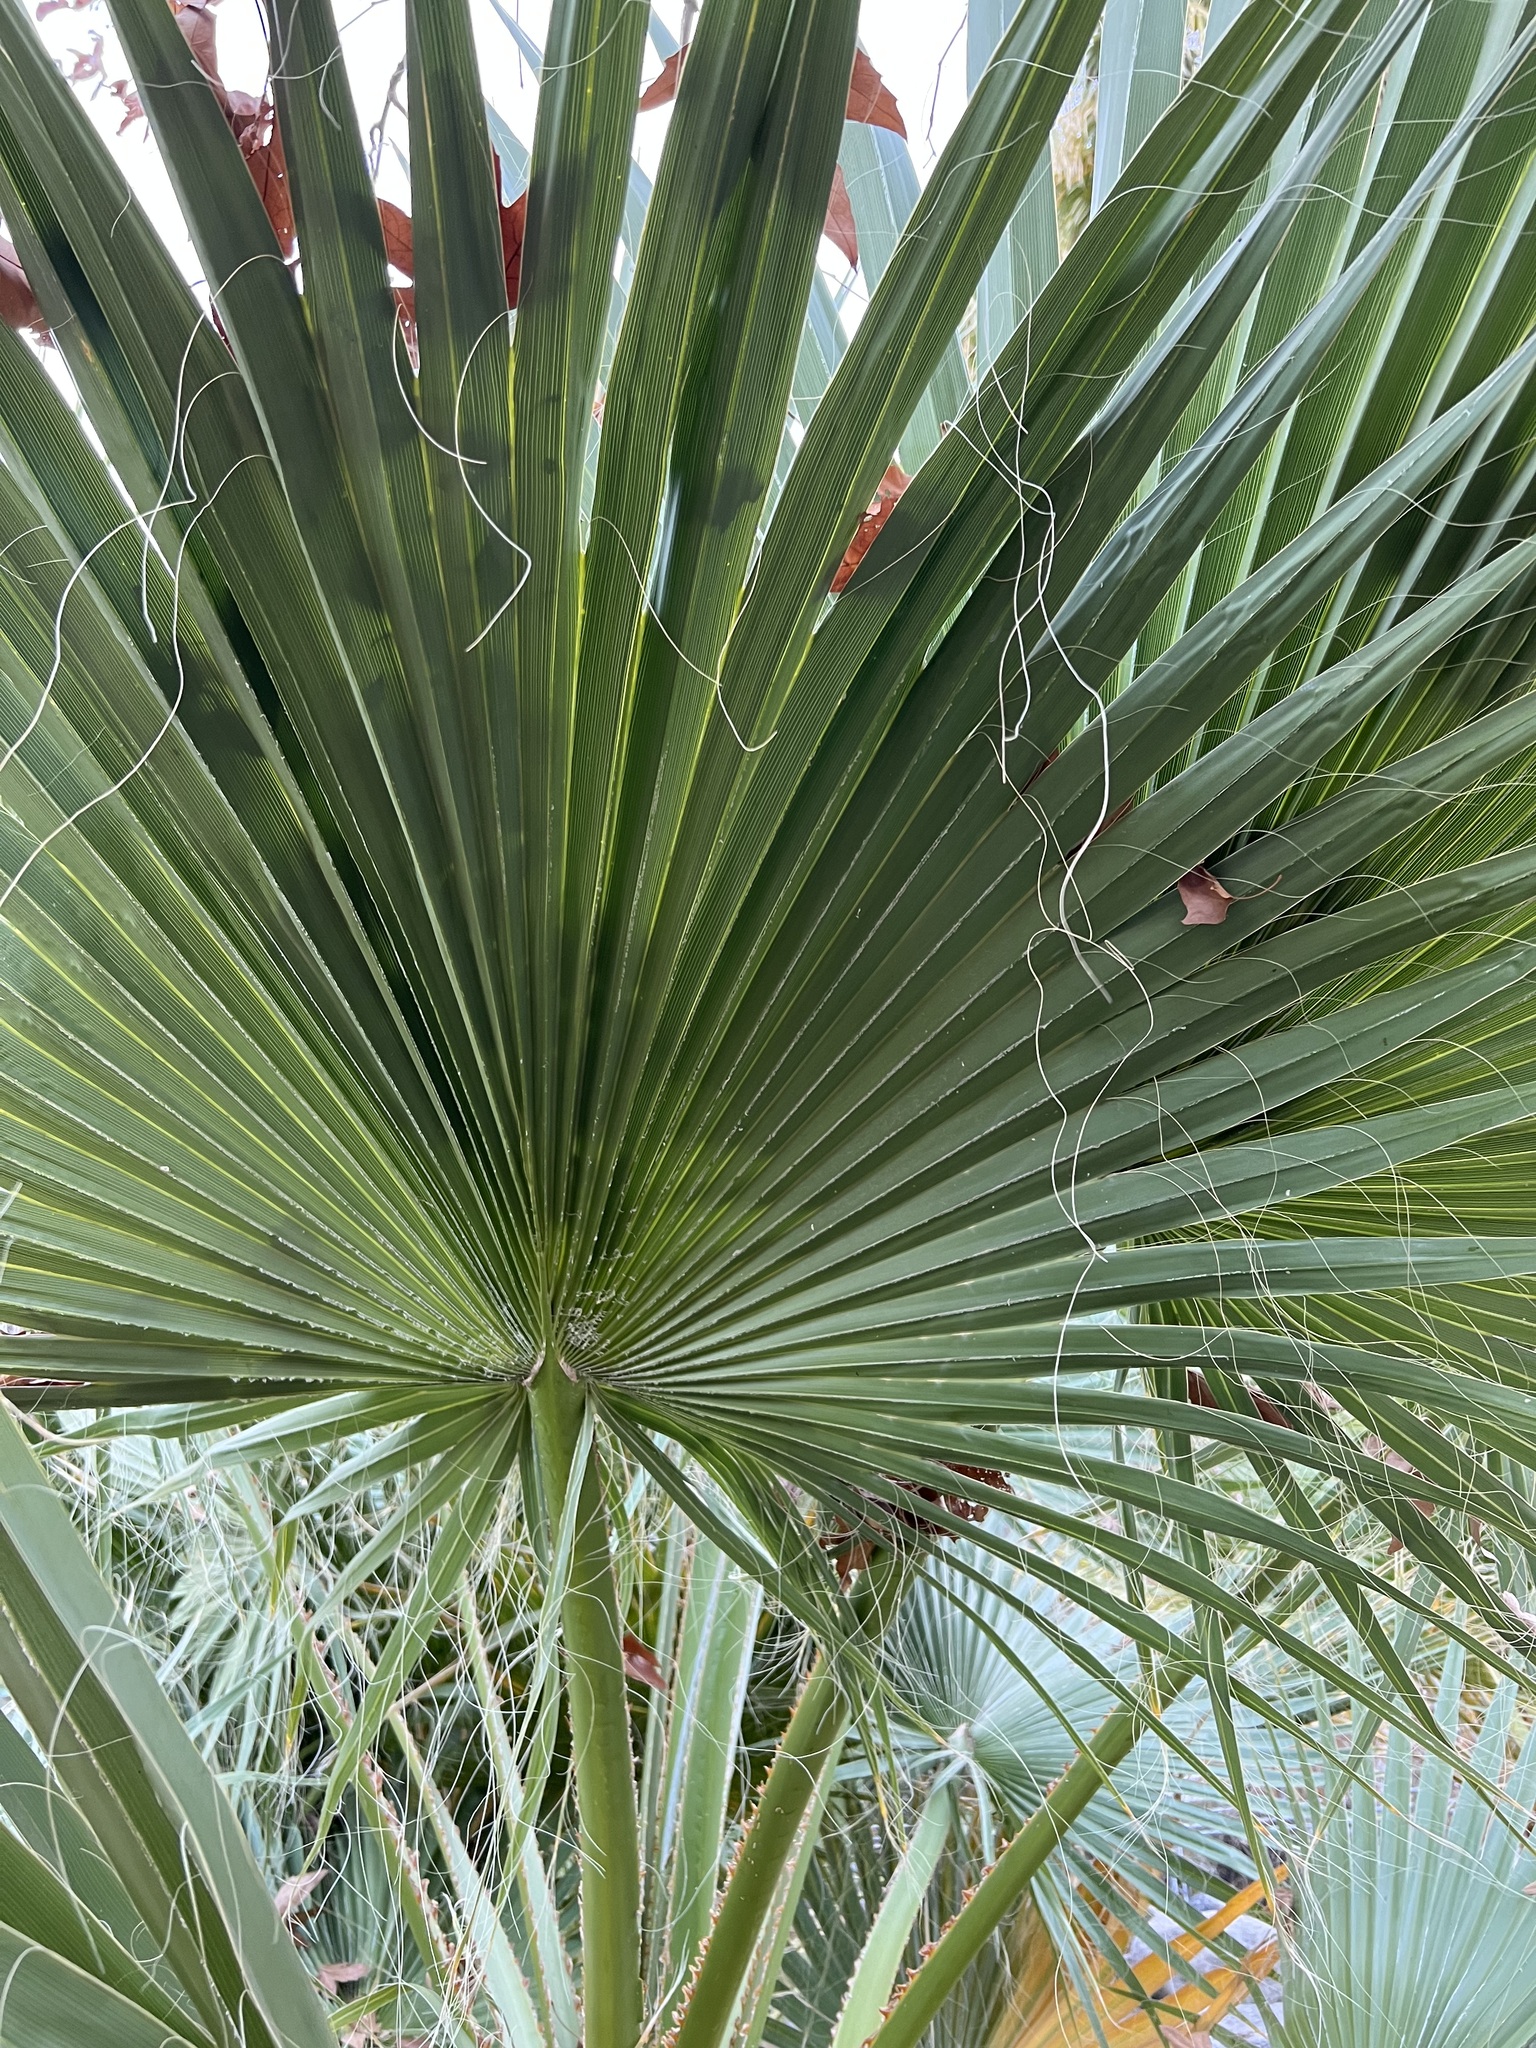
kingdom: Plantae
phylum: Tracheophyta
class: Liliopsida
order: Arecales
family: Arecaceae
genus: Washingtonia
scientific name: Washingtonia filifera
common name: California fan palm
